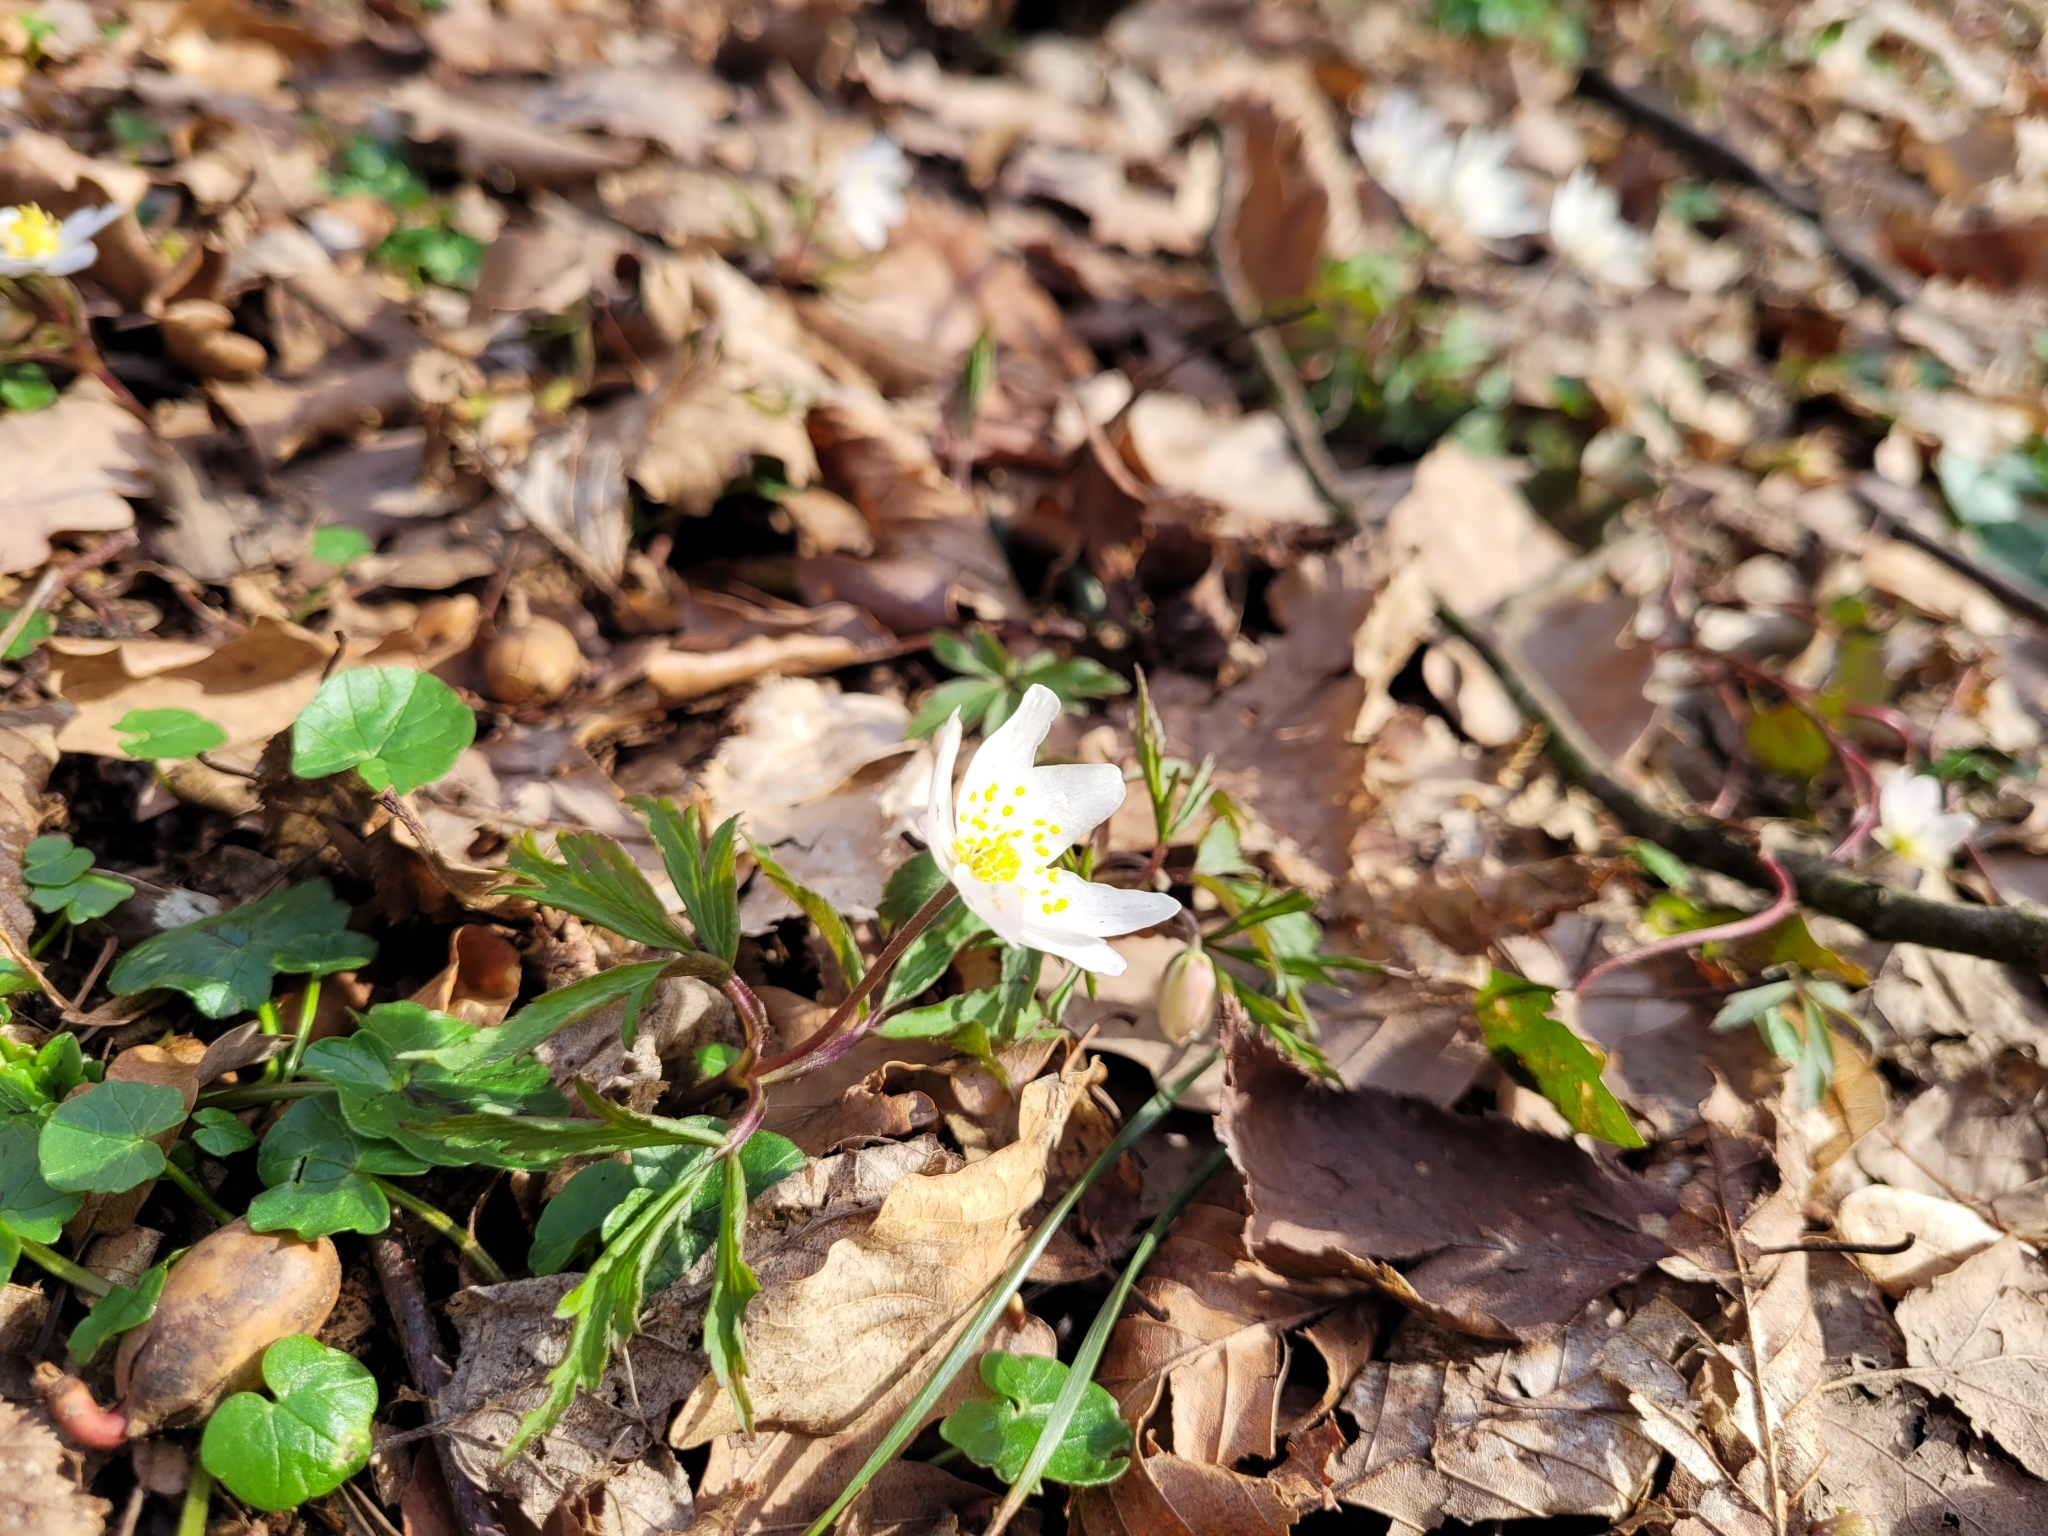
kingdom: Plantae
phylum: Tracheophyta
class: Magnoliopsida
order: Ranunculales
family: Ranunculaceae
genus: Anemone
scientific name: Anemone nemorosa
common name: Wood anemone
